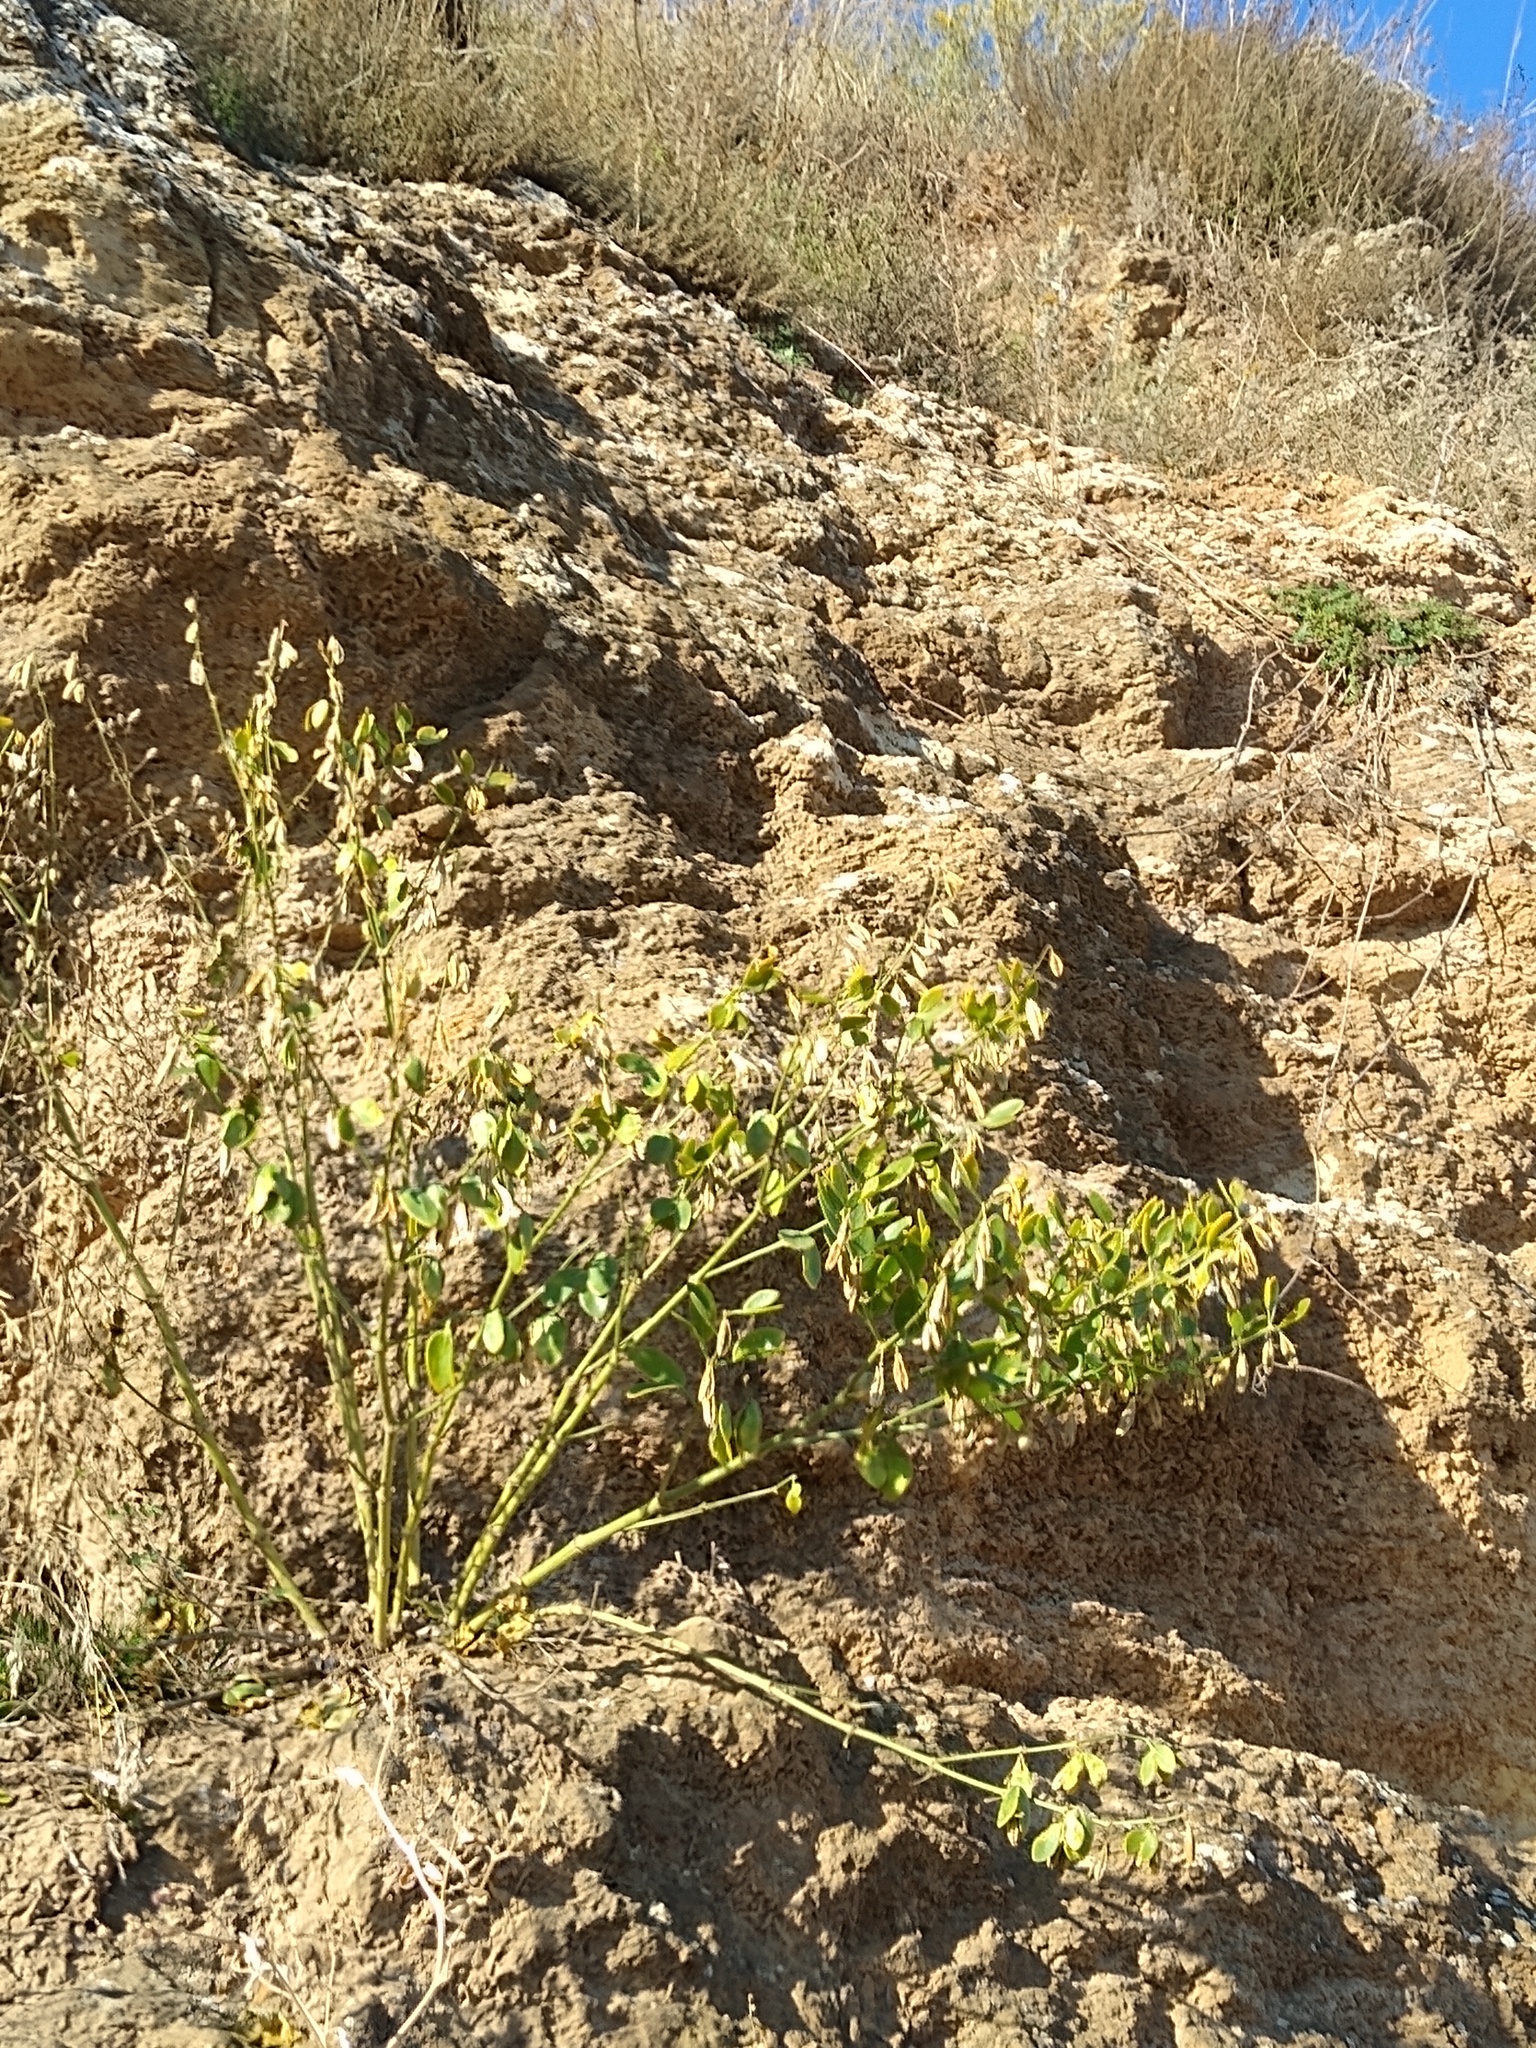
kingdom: Plantae
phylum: Tracheophyta
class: Magnoliopsida
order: Zygophyllales
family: Zygophyllaceae
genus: Zygophyllum
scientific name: Zygophyllum fabago
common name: Syrian beancaper
